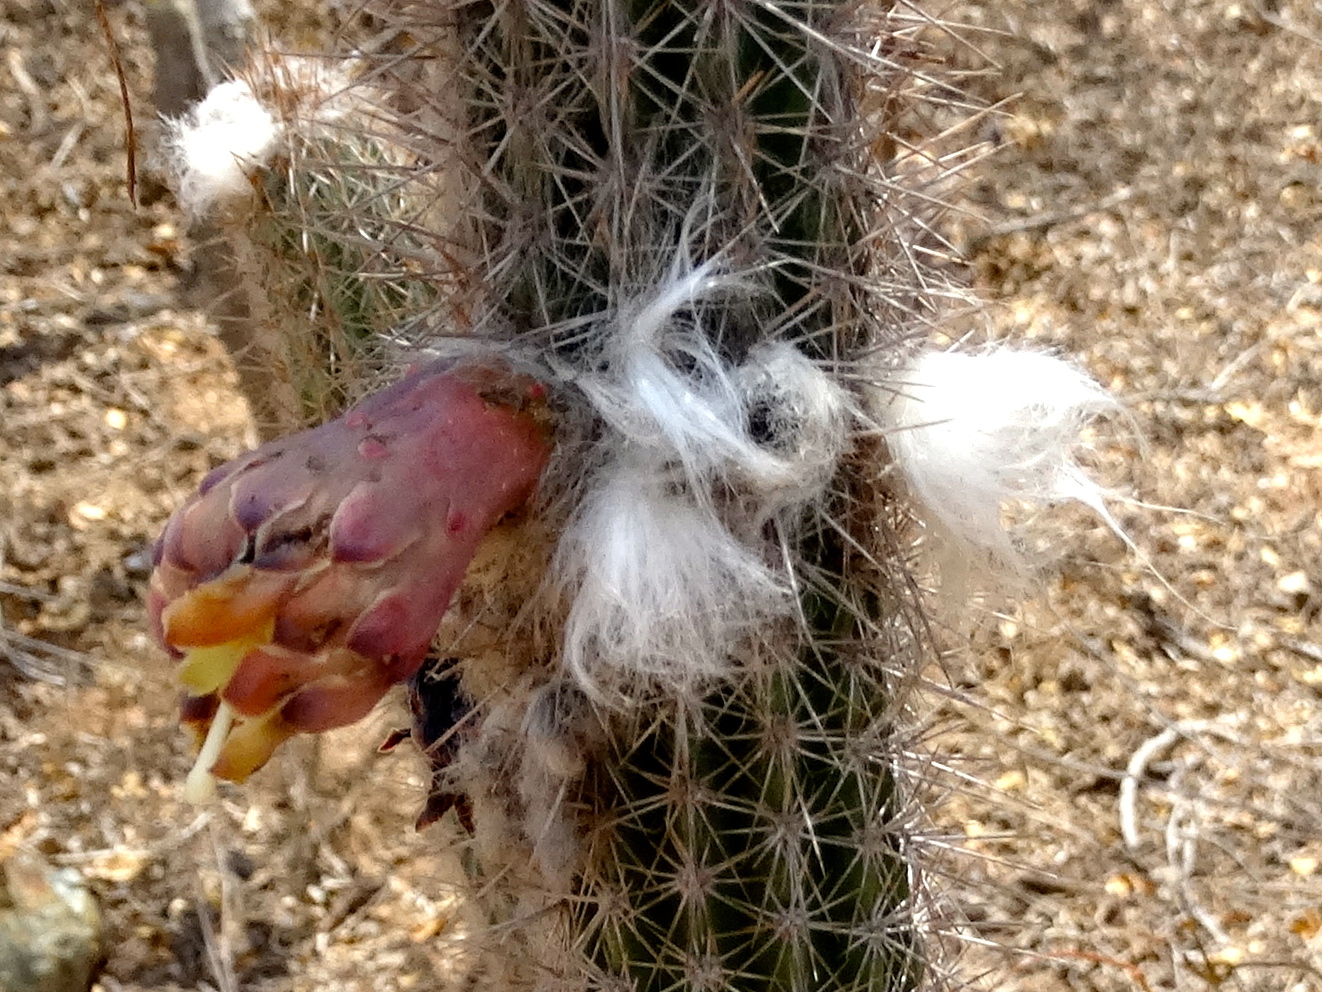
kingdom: Plantae
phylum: Tracheophyta
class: Magnoliopsida
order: Caryophyllales
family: Cactaceae
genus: Pilosocereus
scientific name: Pilosocereus purpusii
